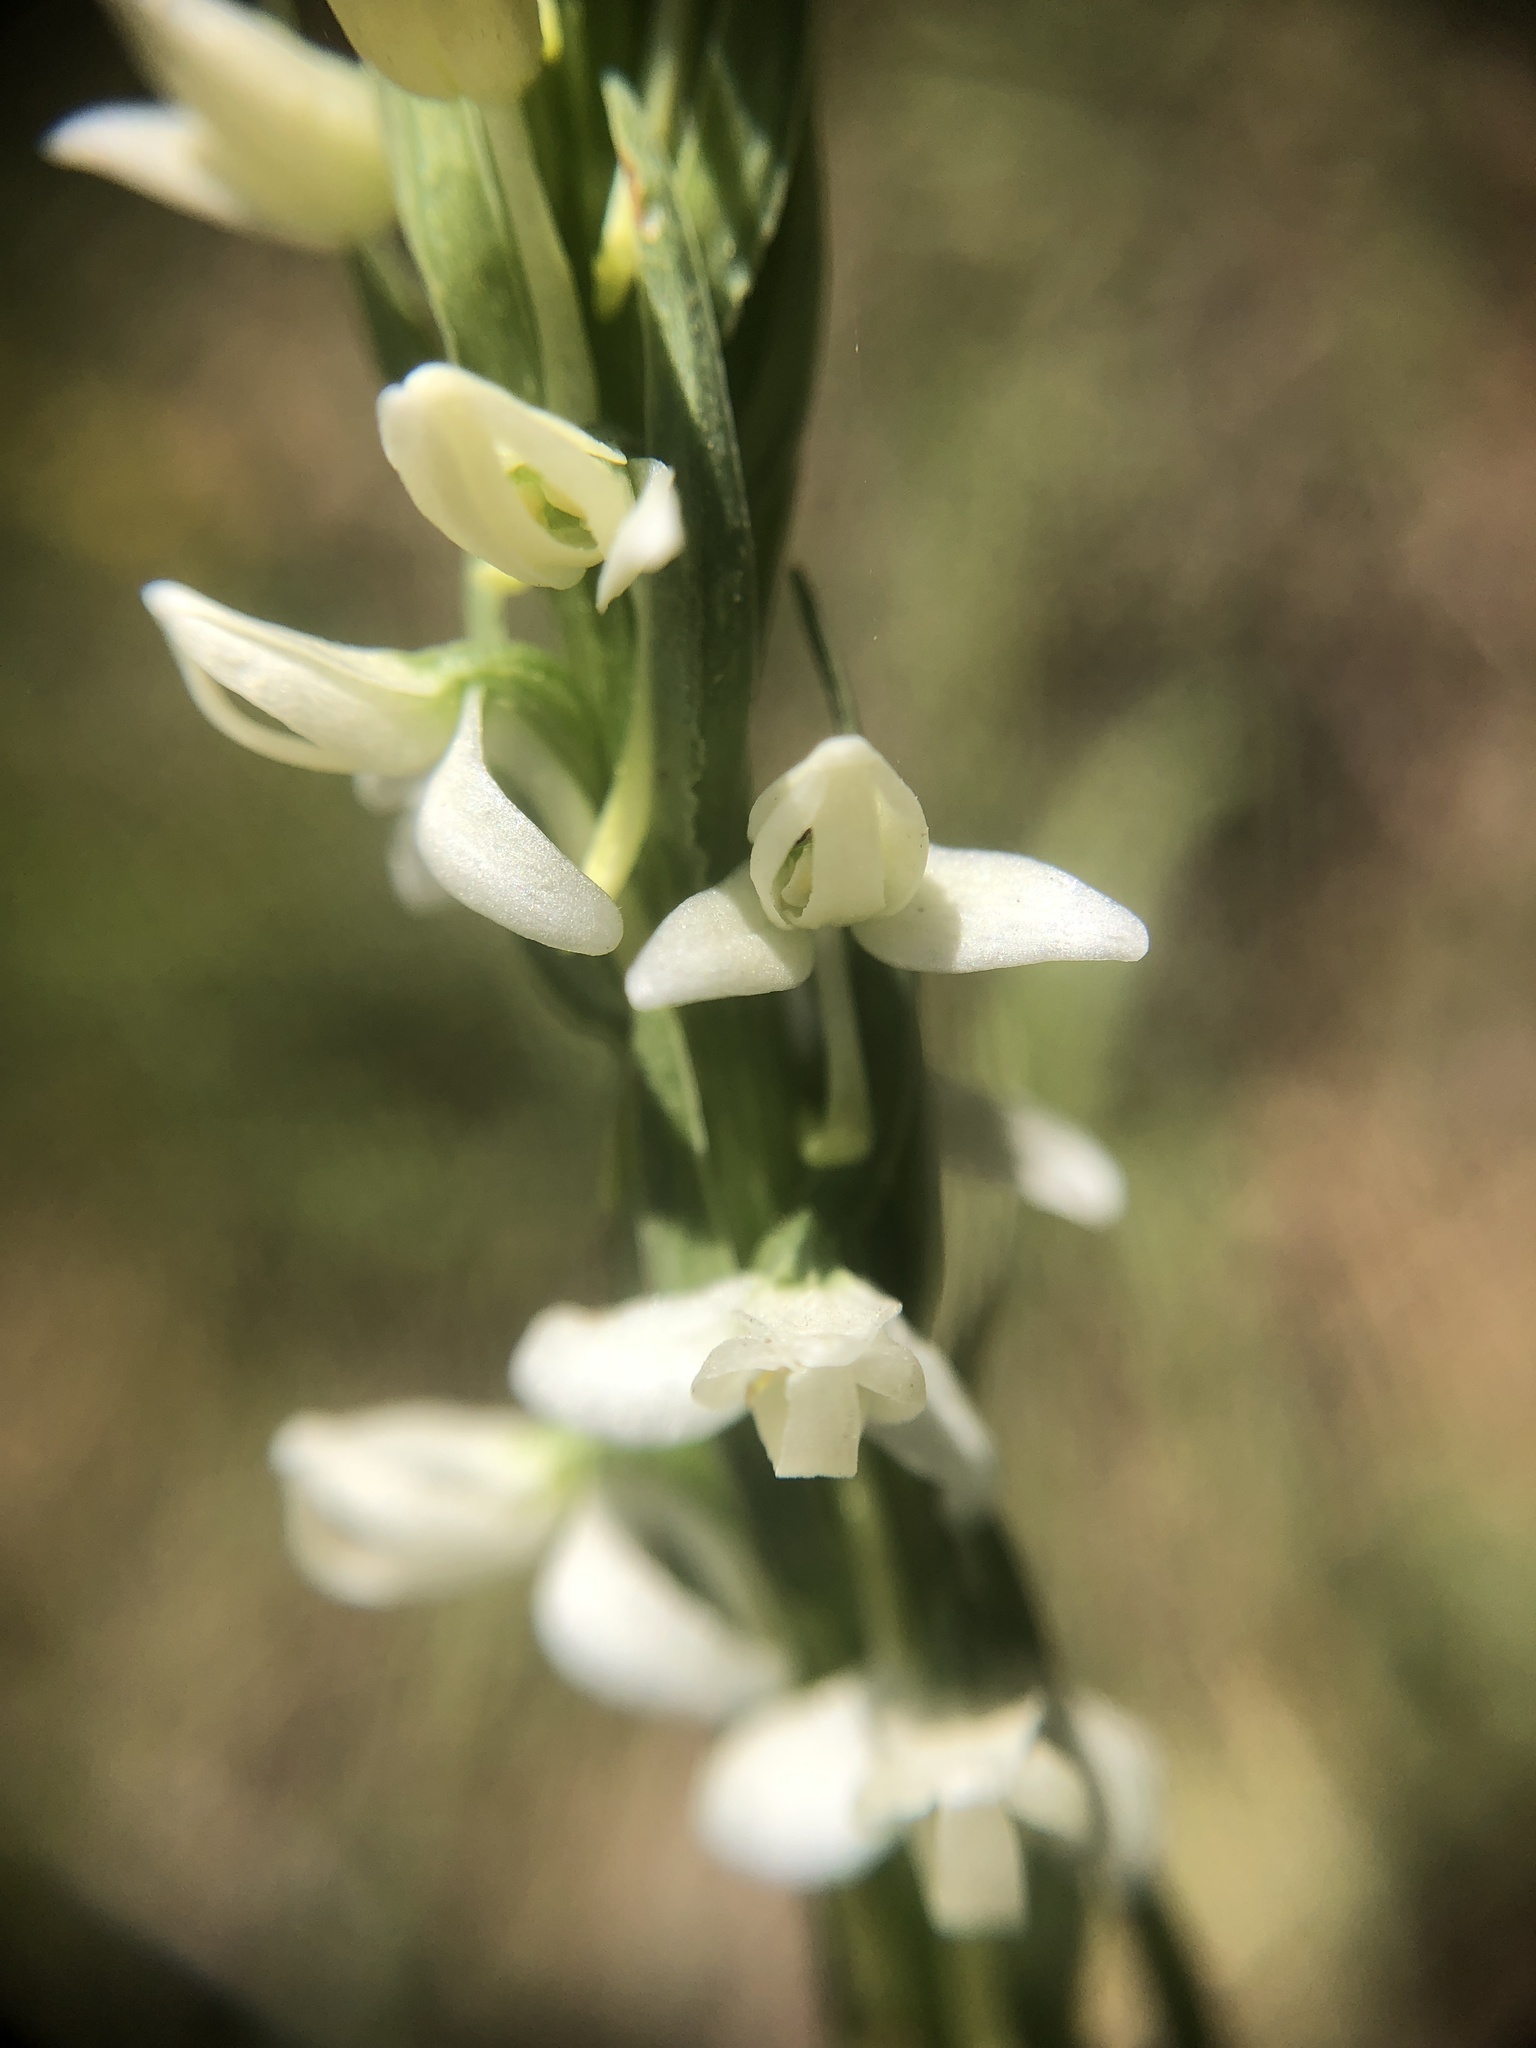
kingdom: Plantae
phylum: Tracheophyta
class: Liliopsida
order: Asparagales
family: Orchidaceae
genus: Platanthera
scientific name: Platanthera dilatata
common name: Bog candles
